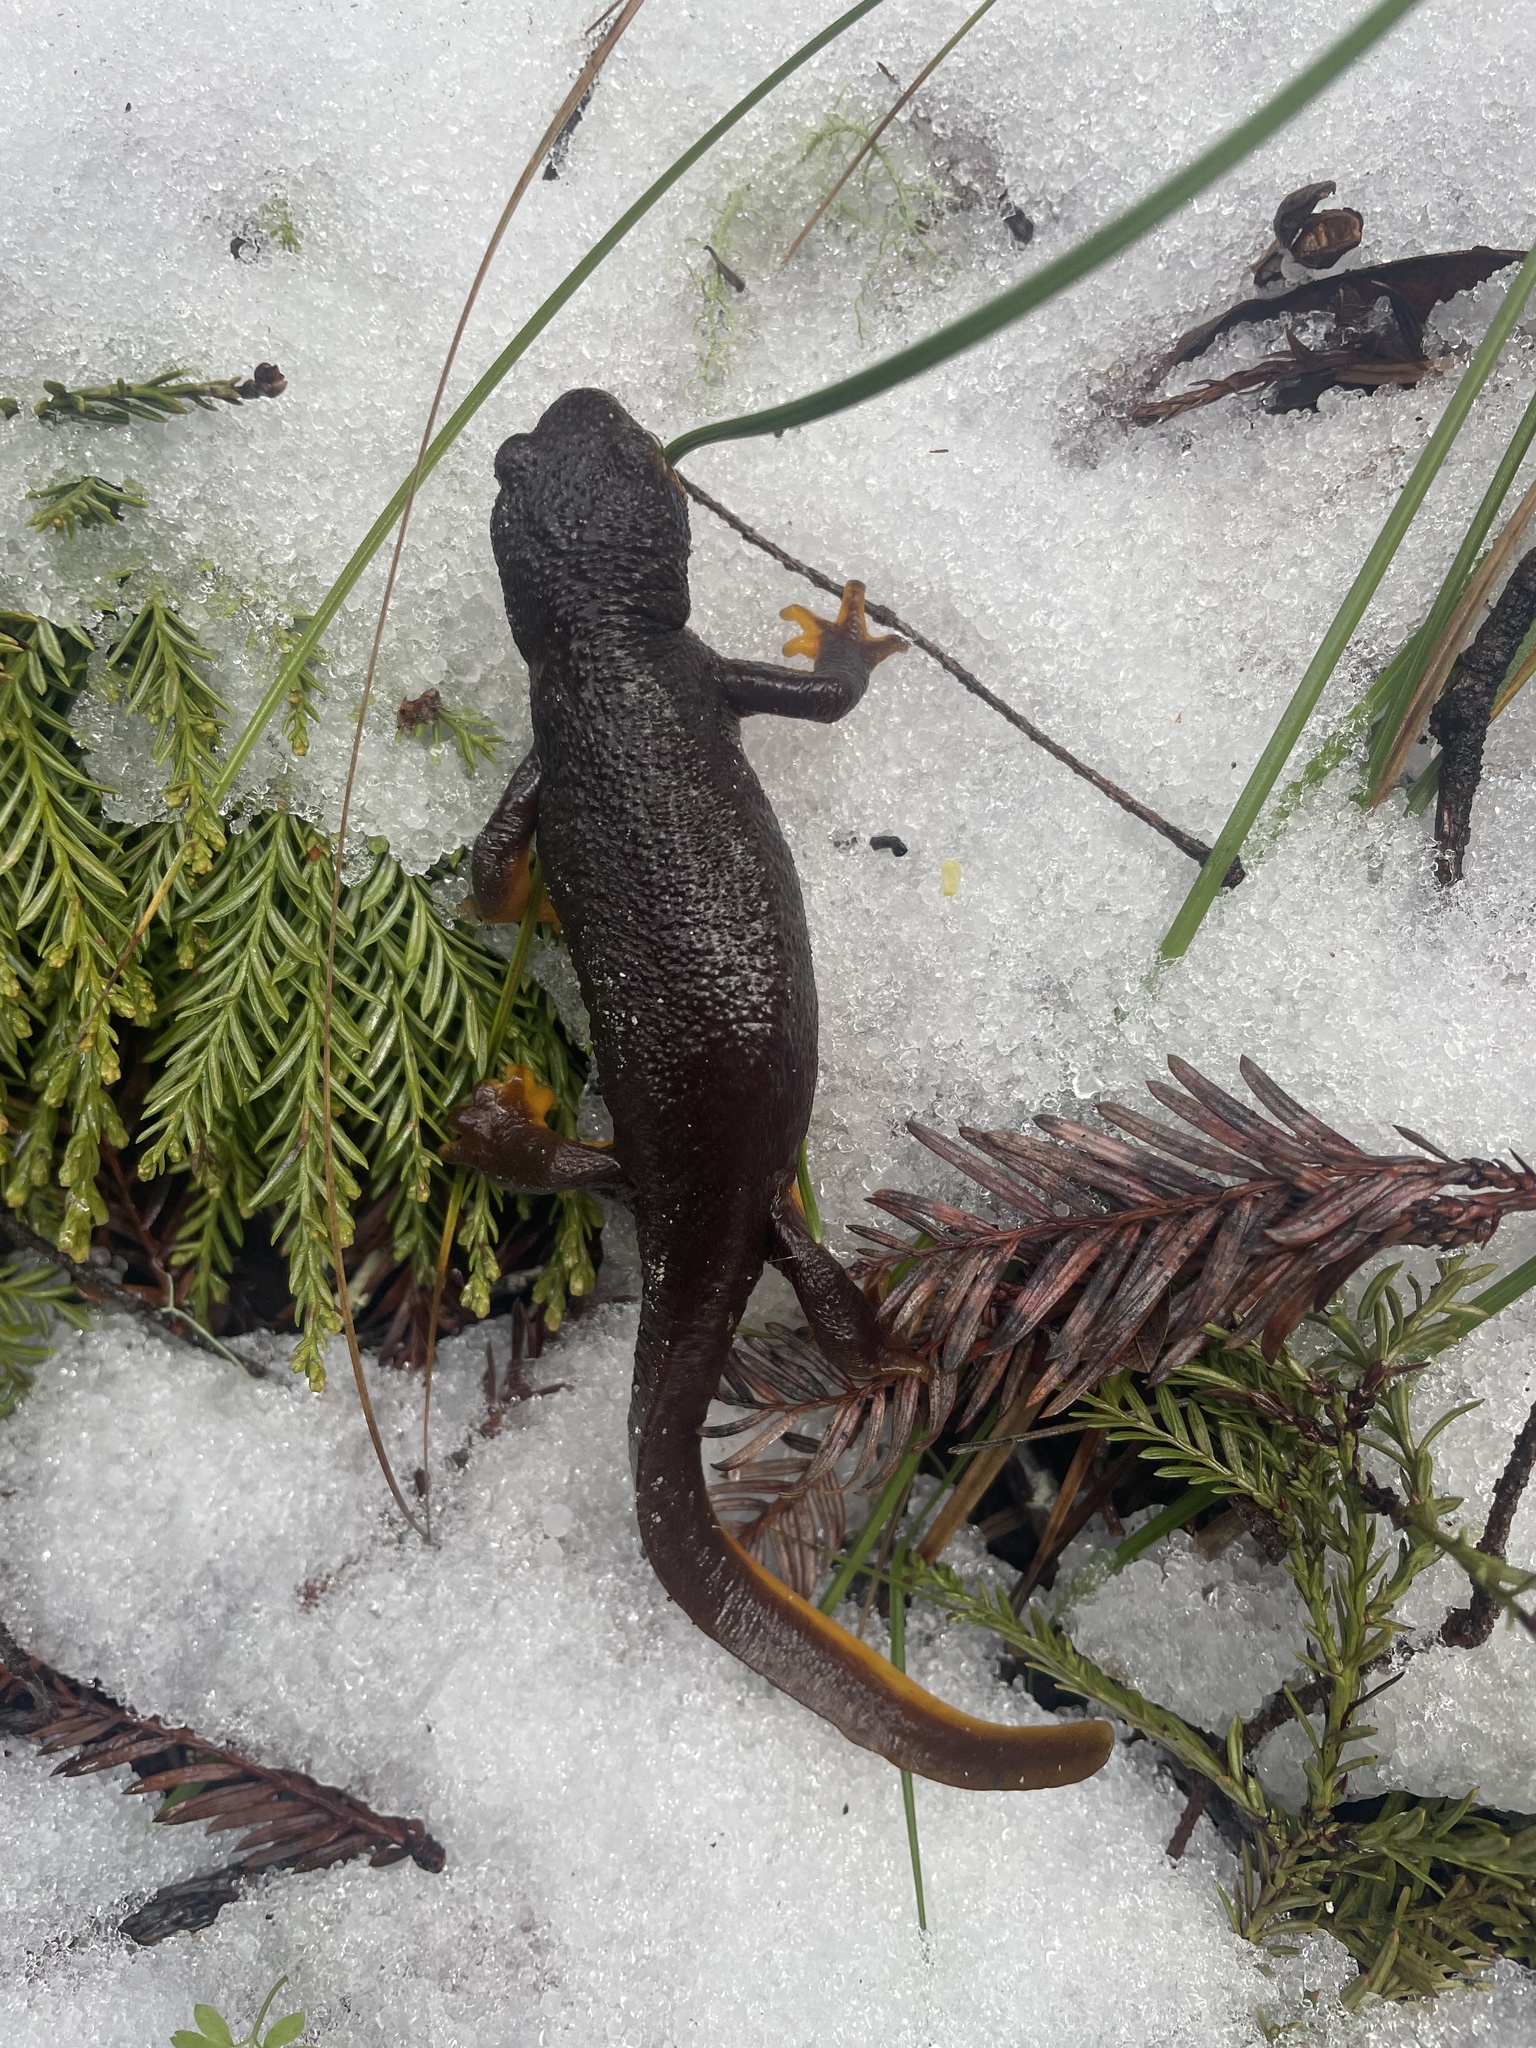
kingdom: Animalia
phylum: Chordata
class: Amphibia
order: Caudata
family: Salamandridae
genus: Taricha
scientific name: Taricha torosa
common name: California newt
